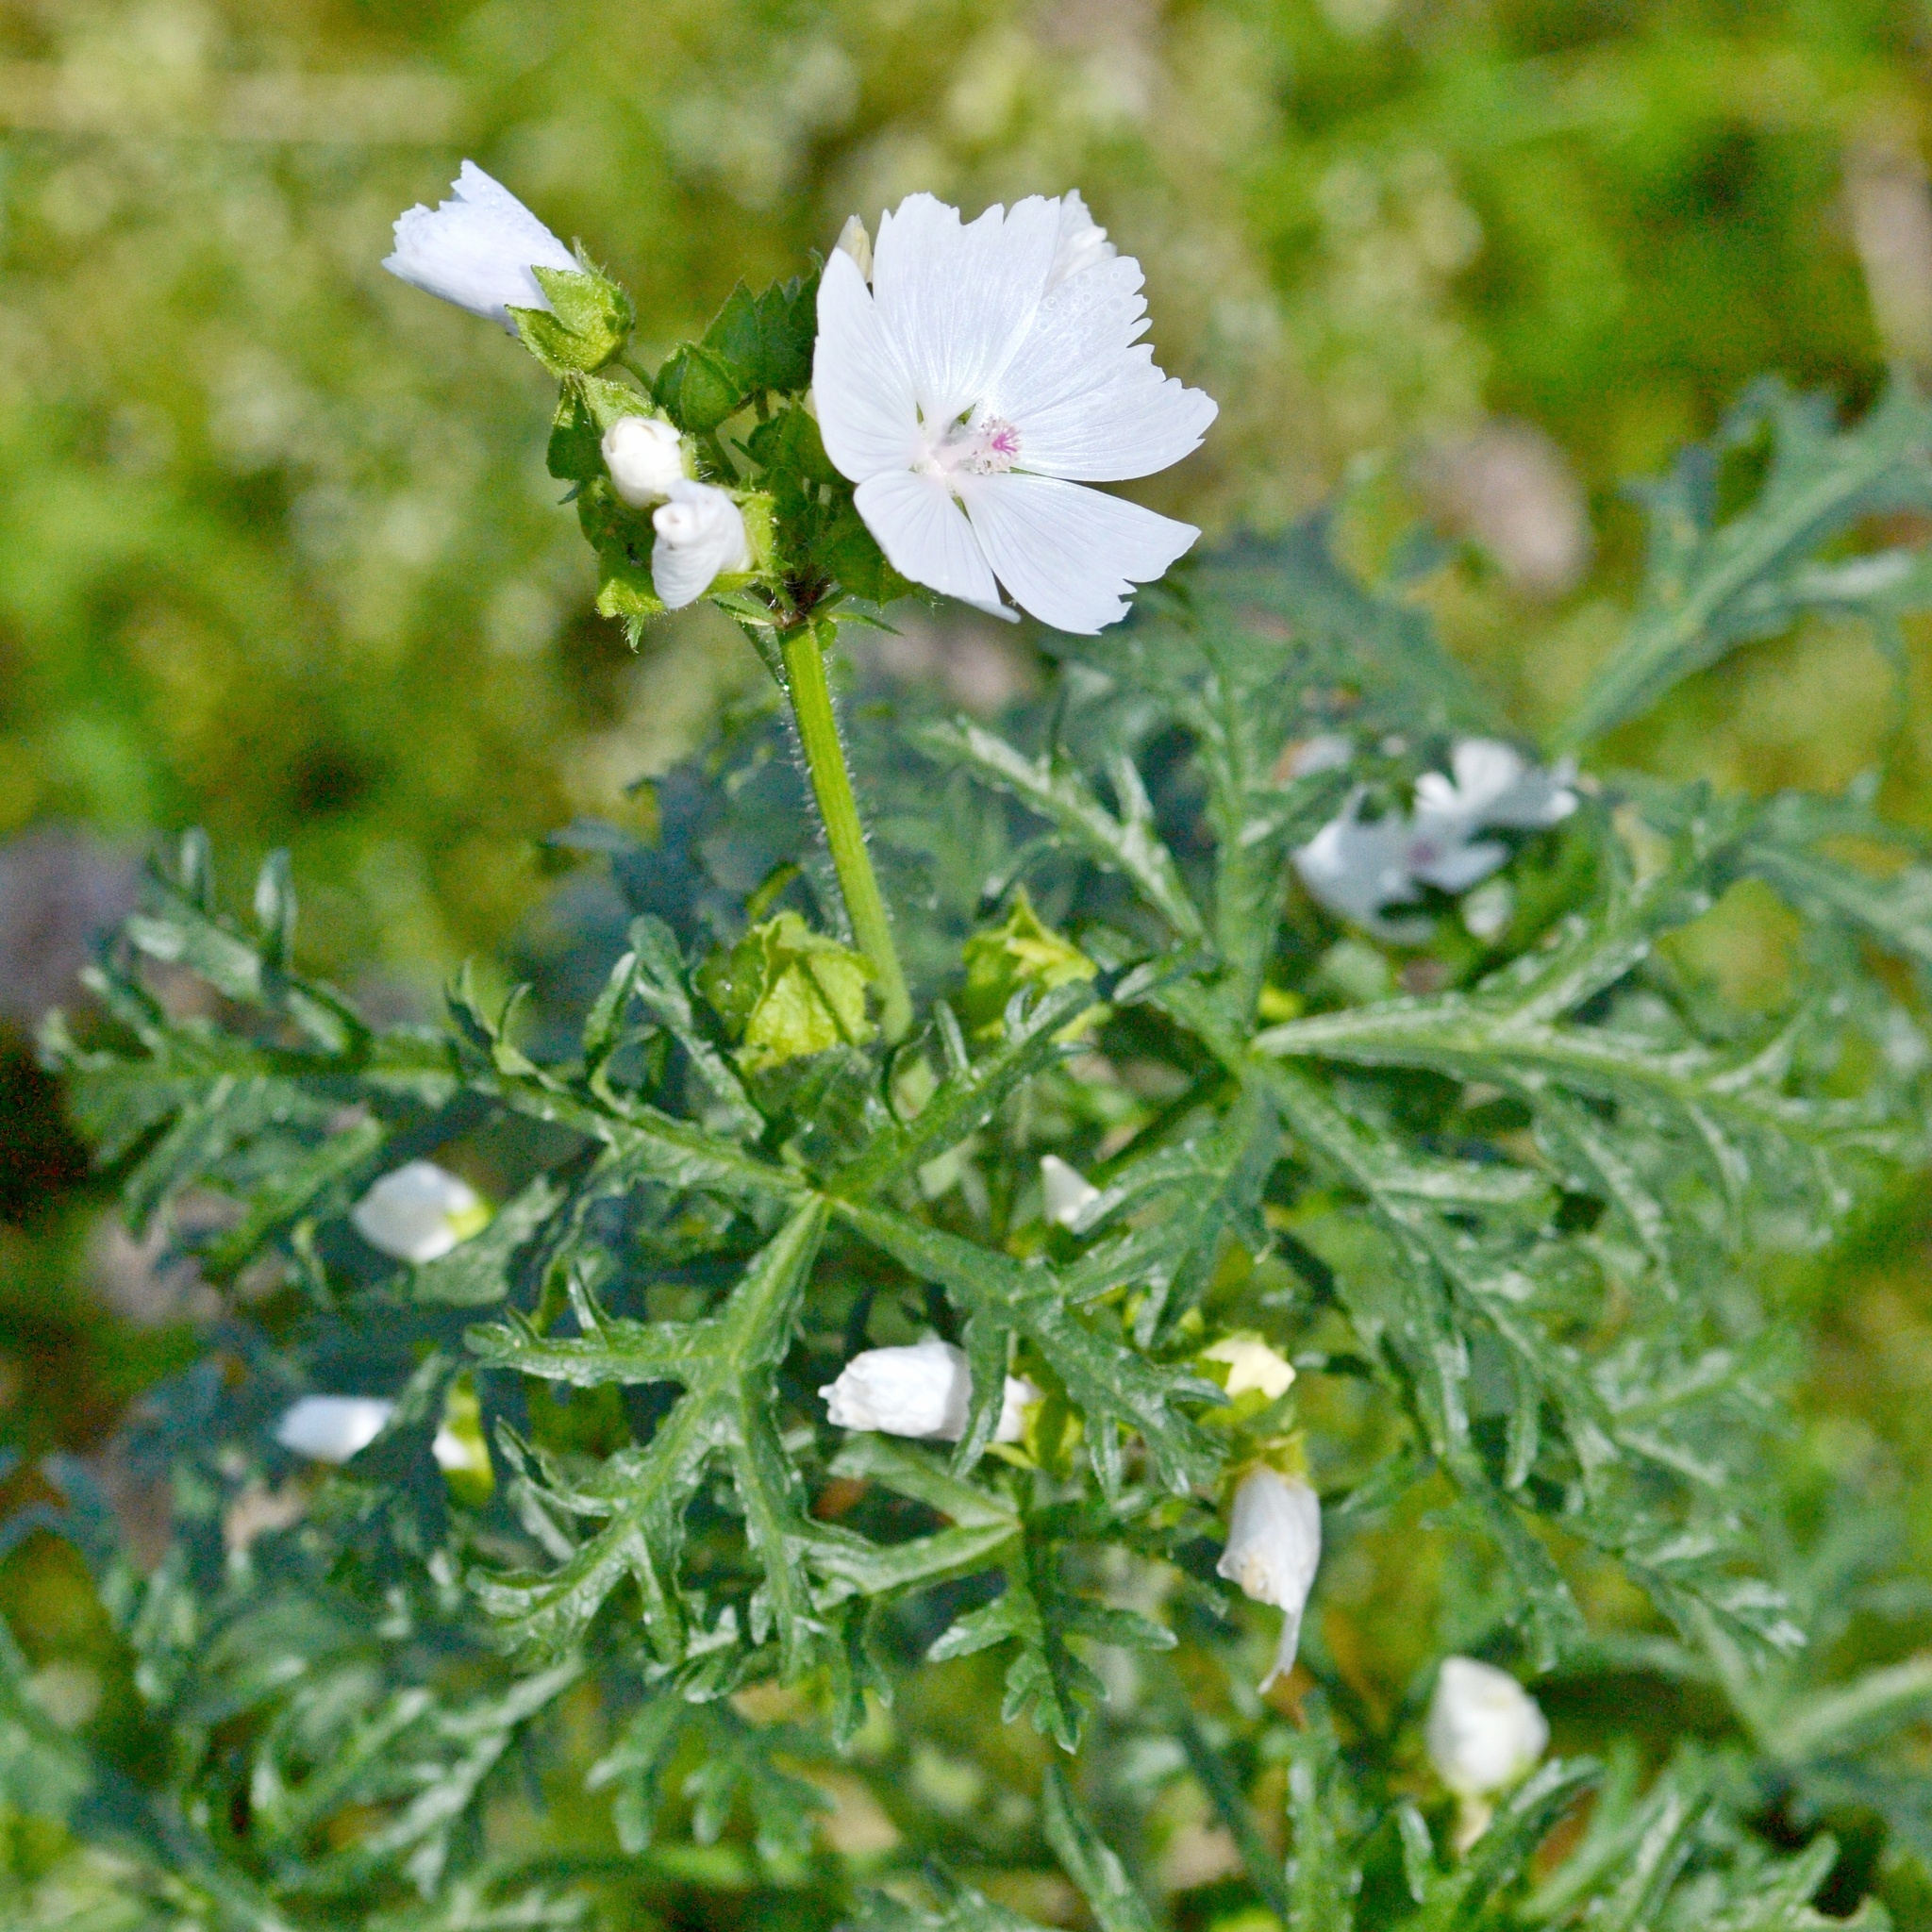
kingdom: Plantae
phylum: Tracheophyta
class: Magnoliopsida
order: Malvales
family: Malvaceae
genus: Malva
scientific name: Malva moschata
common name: Musk mallow
